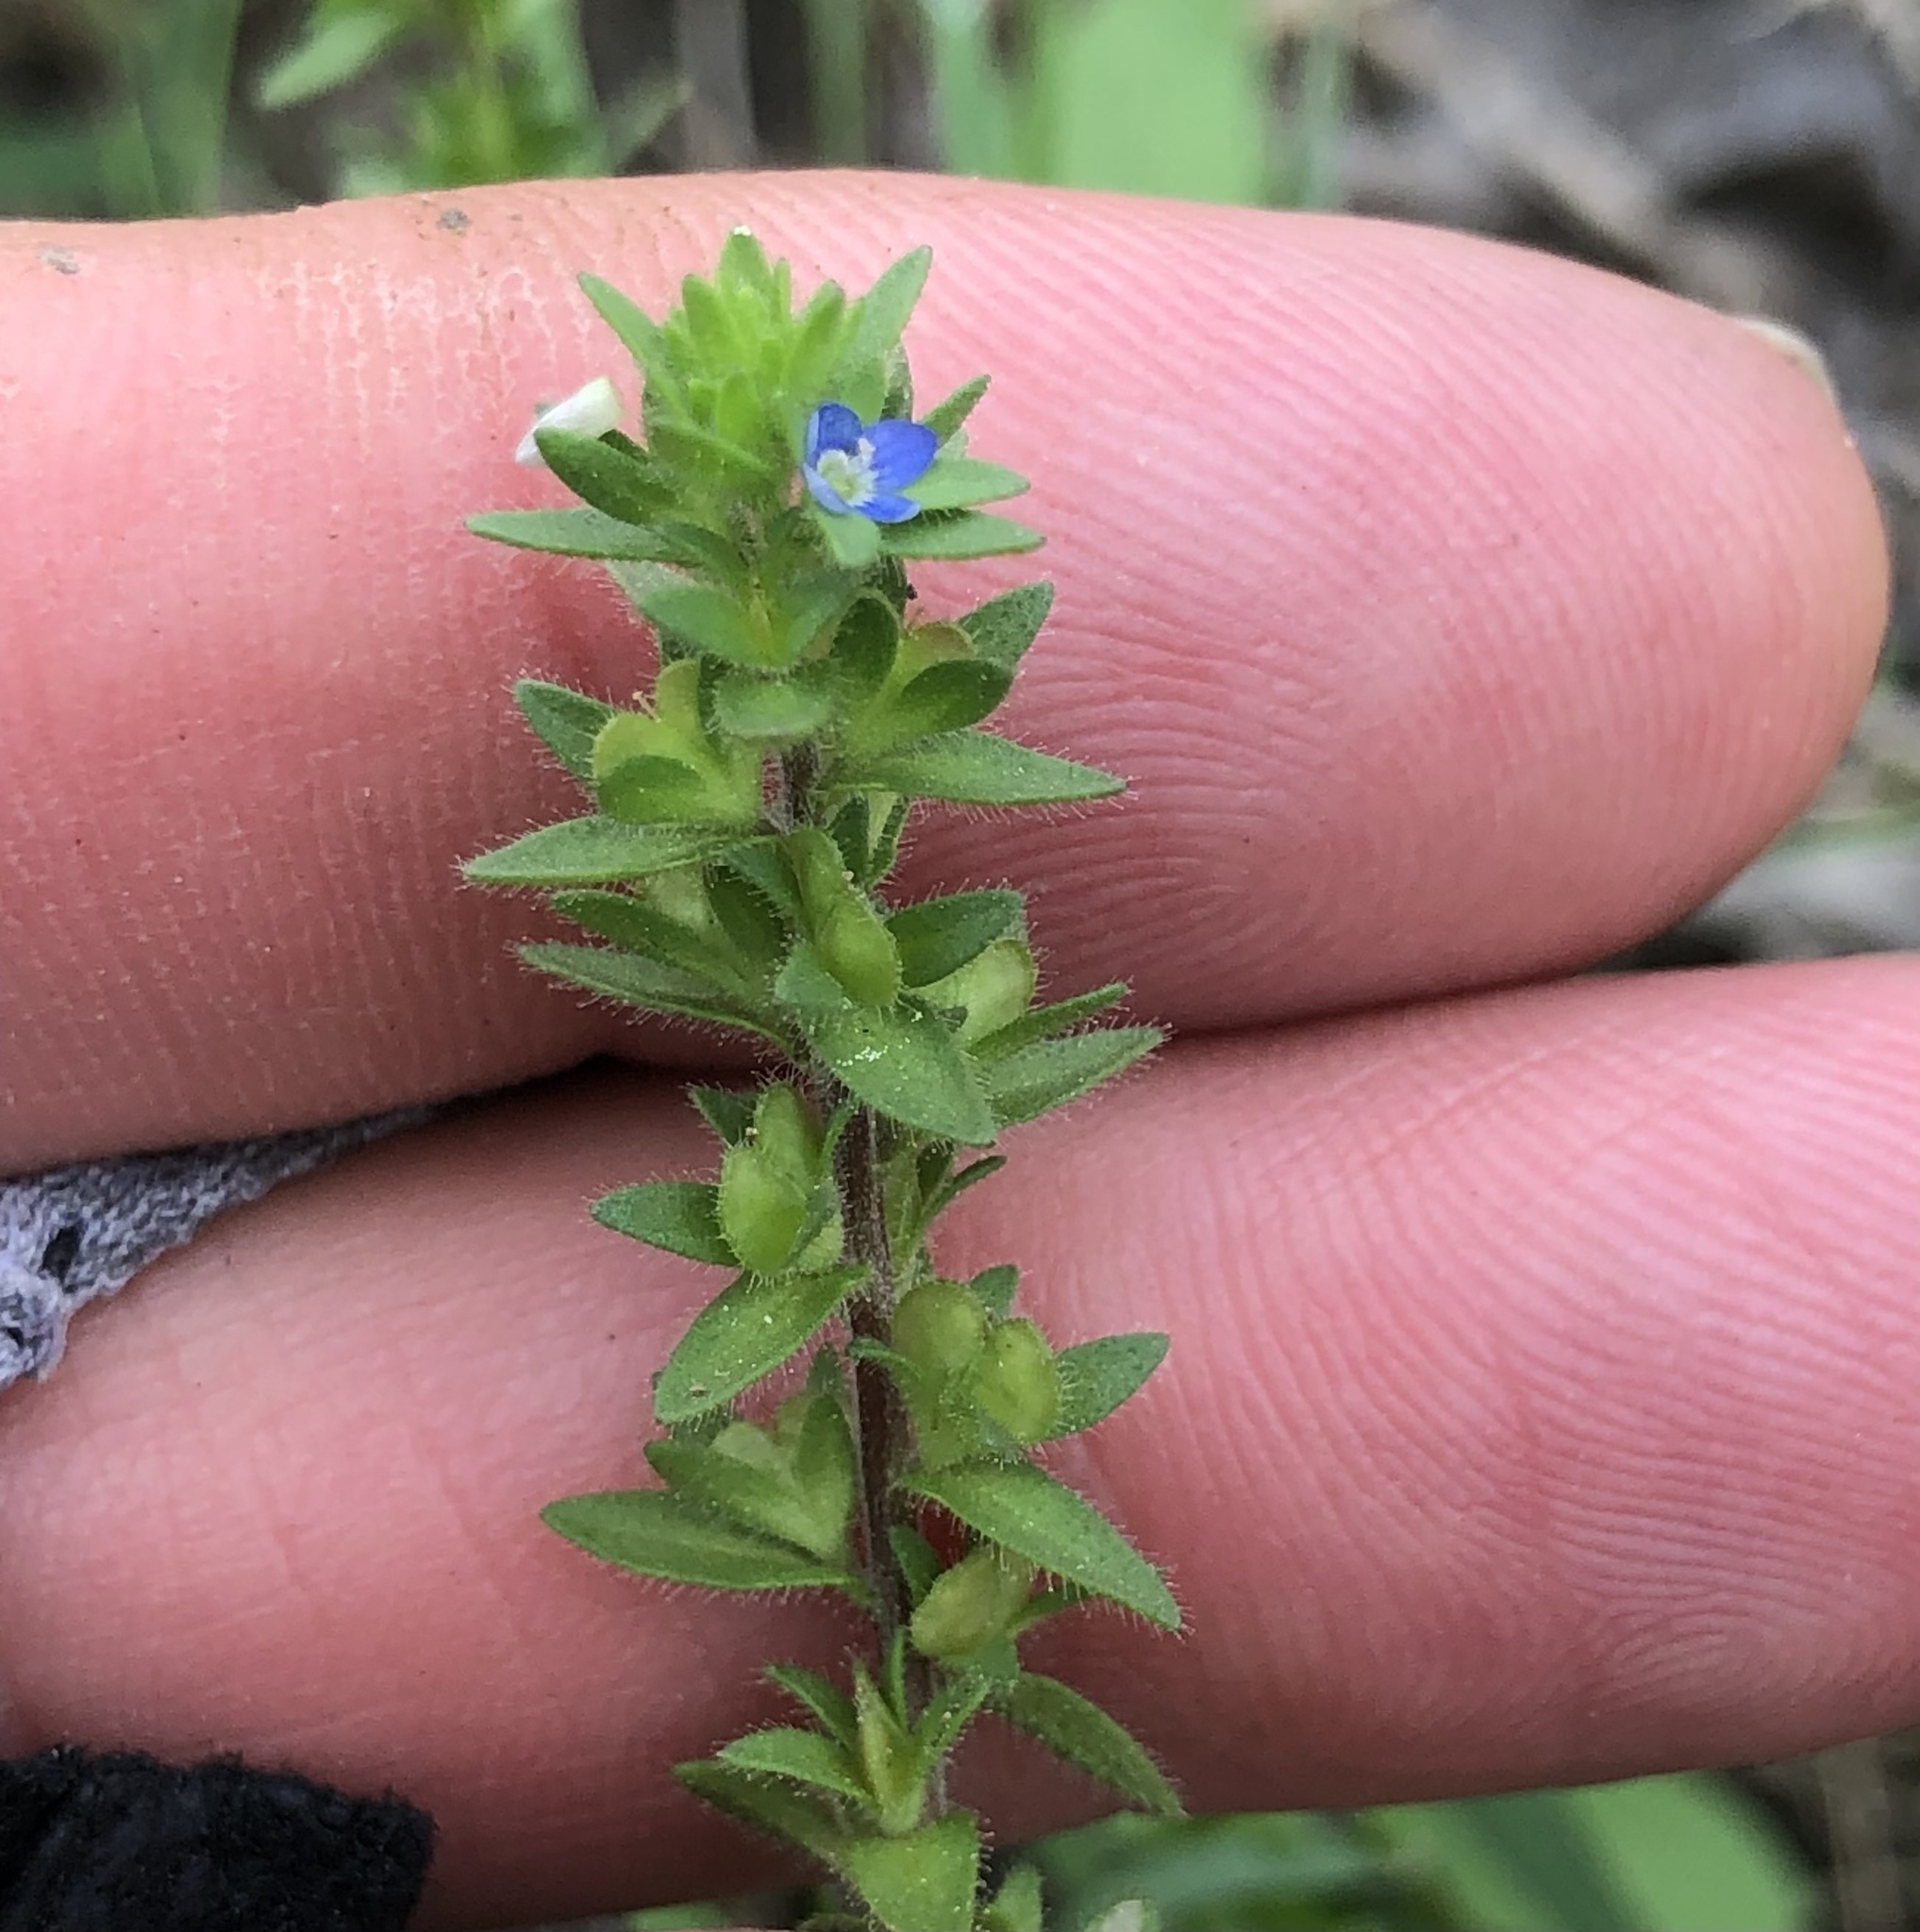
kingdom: Plantae
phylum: Tracheophyta
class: Magnoliopsida
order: Lamiales
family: Plantaginaceae
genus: Veronica
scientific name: Veronica arvensis
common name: Corn speedwell
